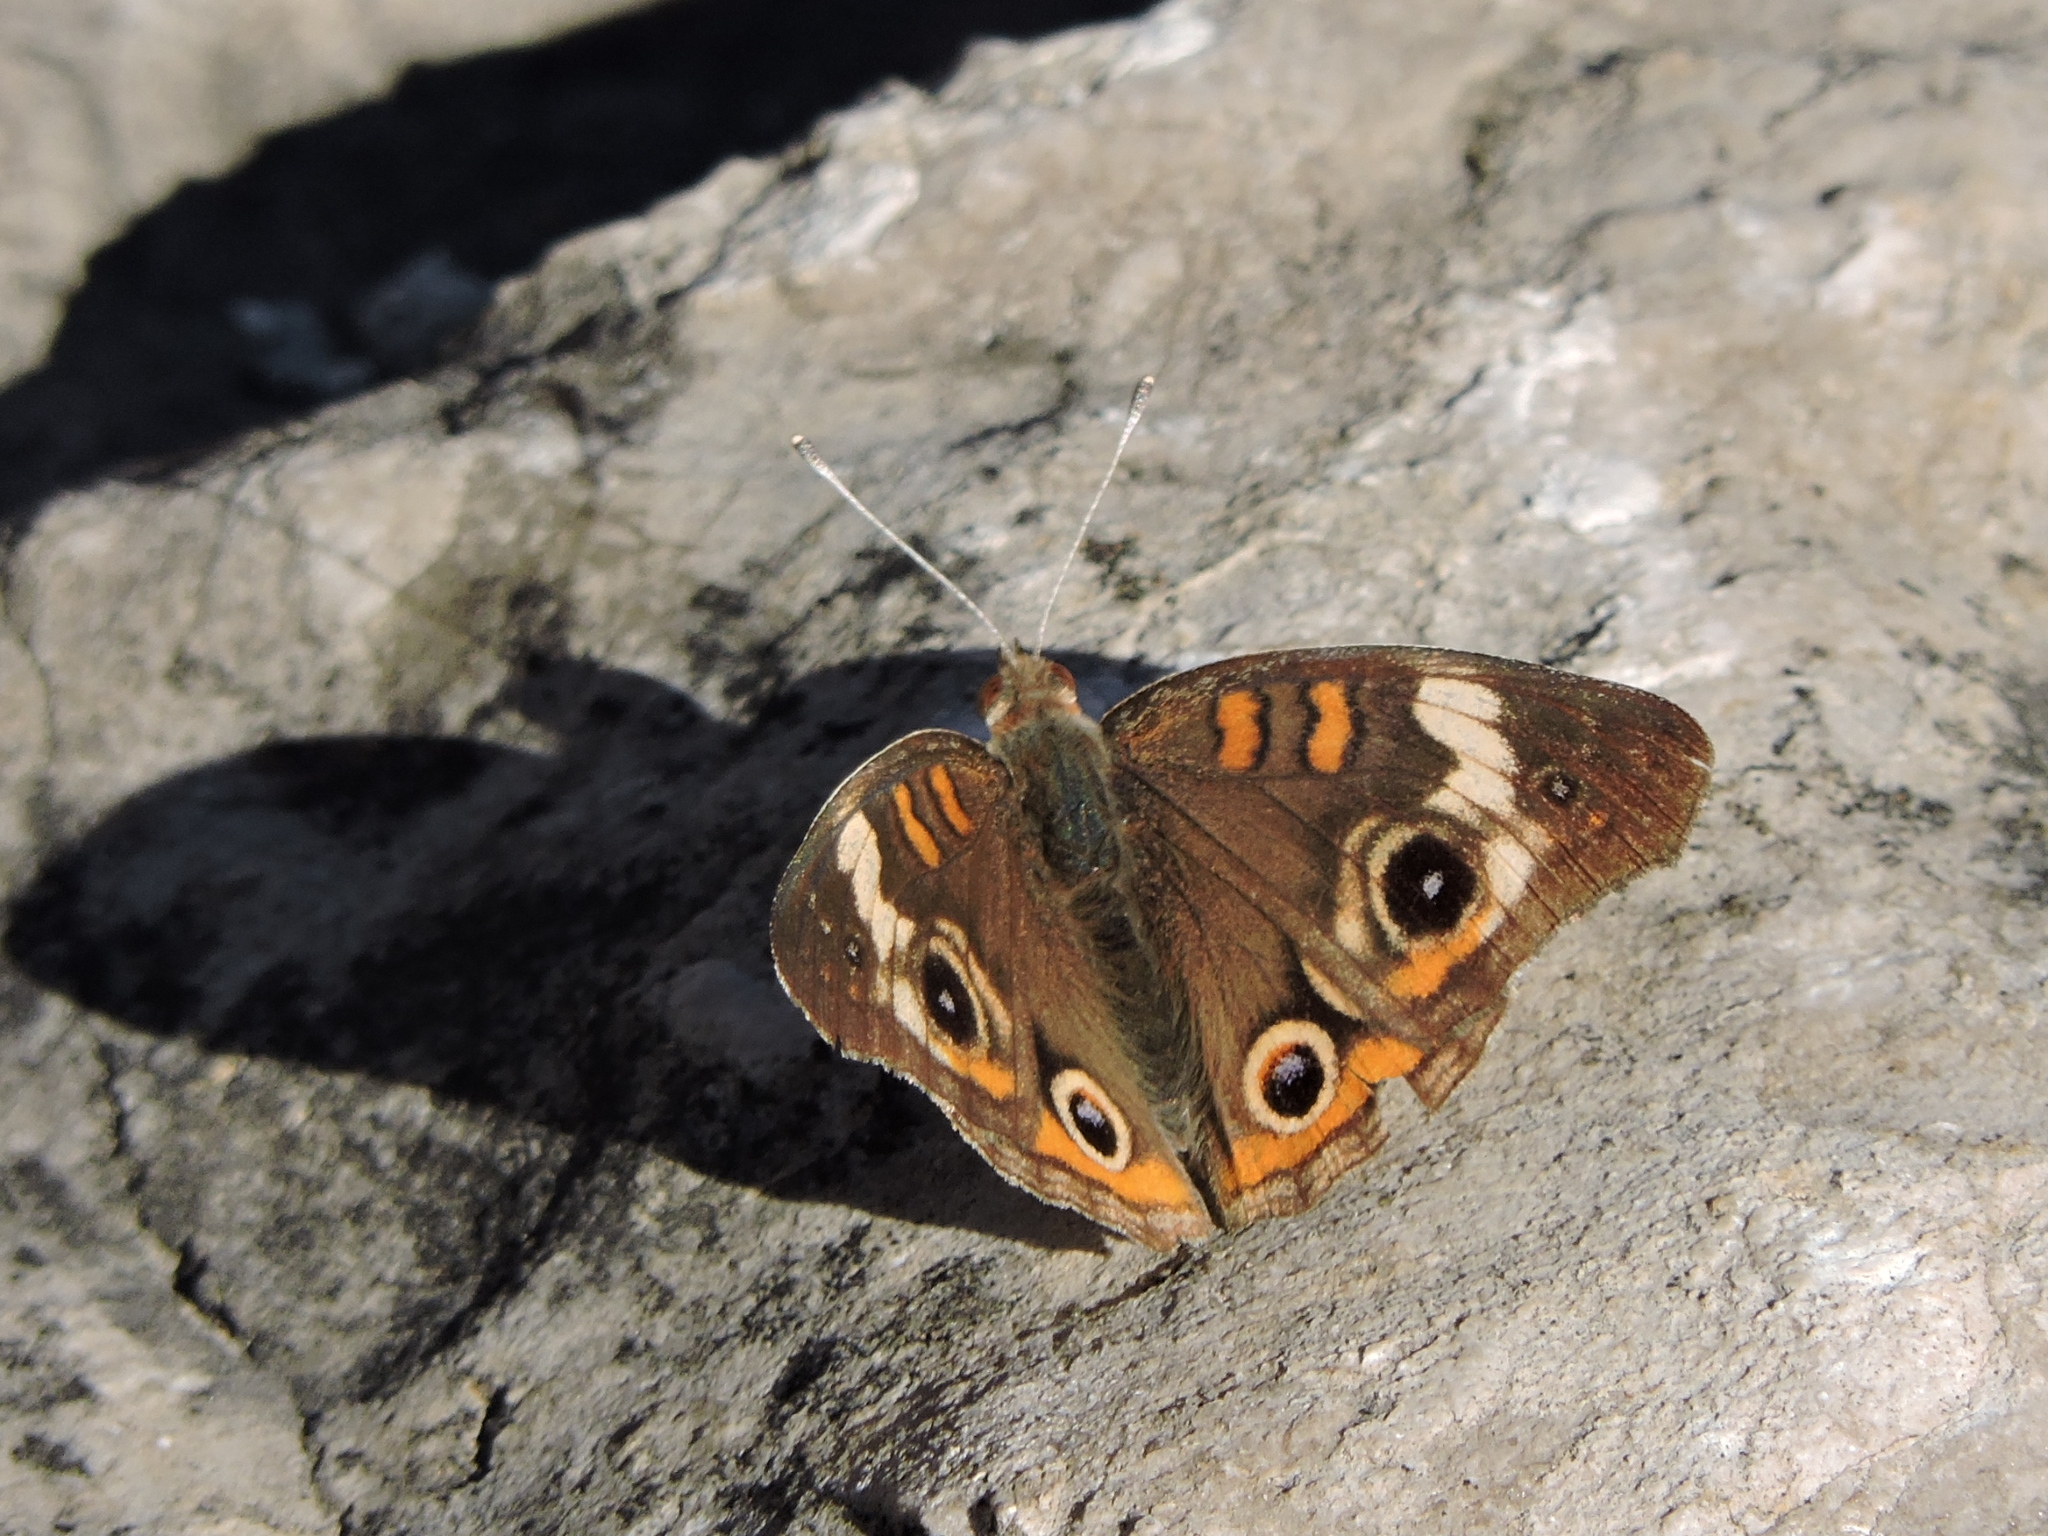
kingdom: Animalia
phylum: Arthropoda
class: Insecta
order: Lepidoptera
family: Nymphalidae
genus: Junonia
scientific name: Junonia coenia
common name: Common buckeye
